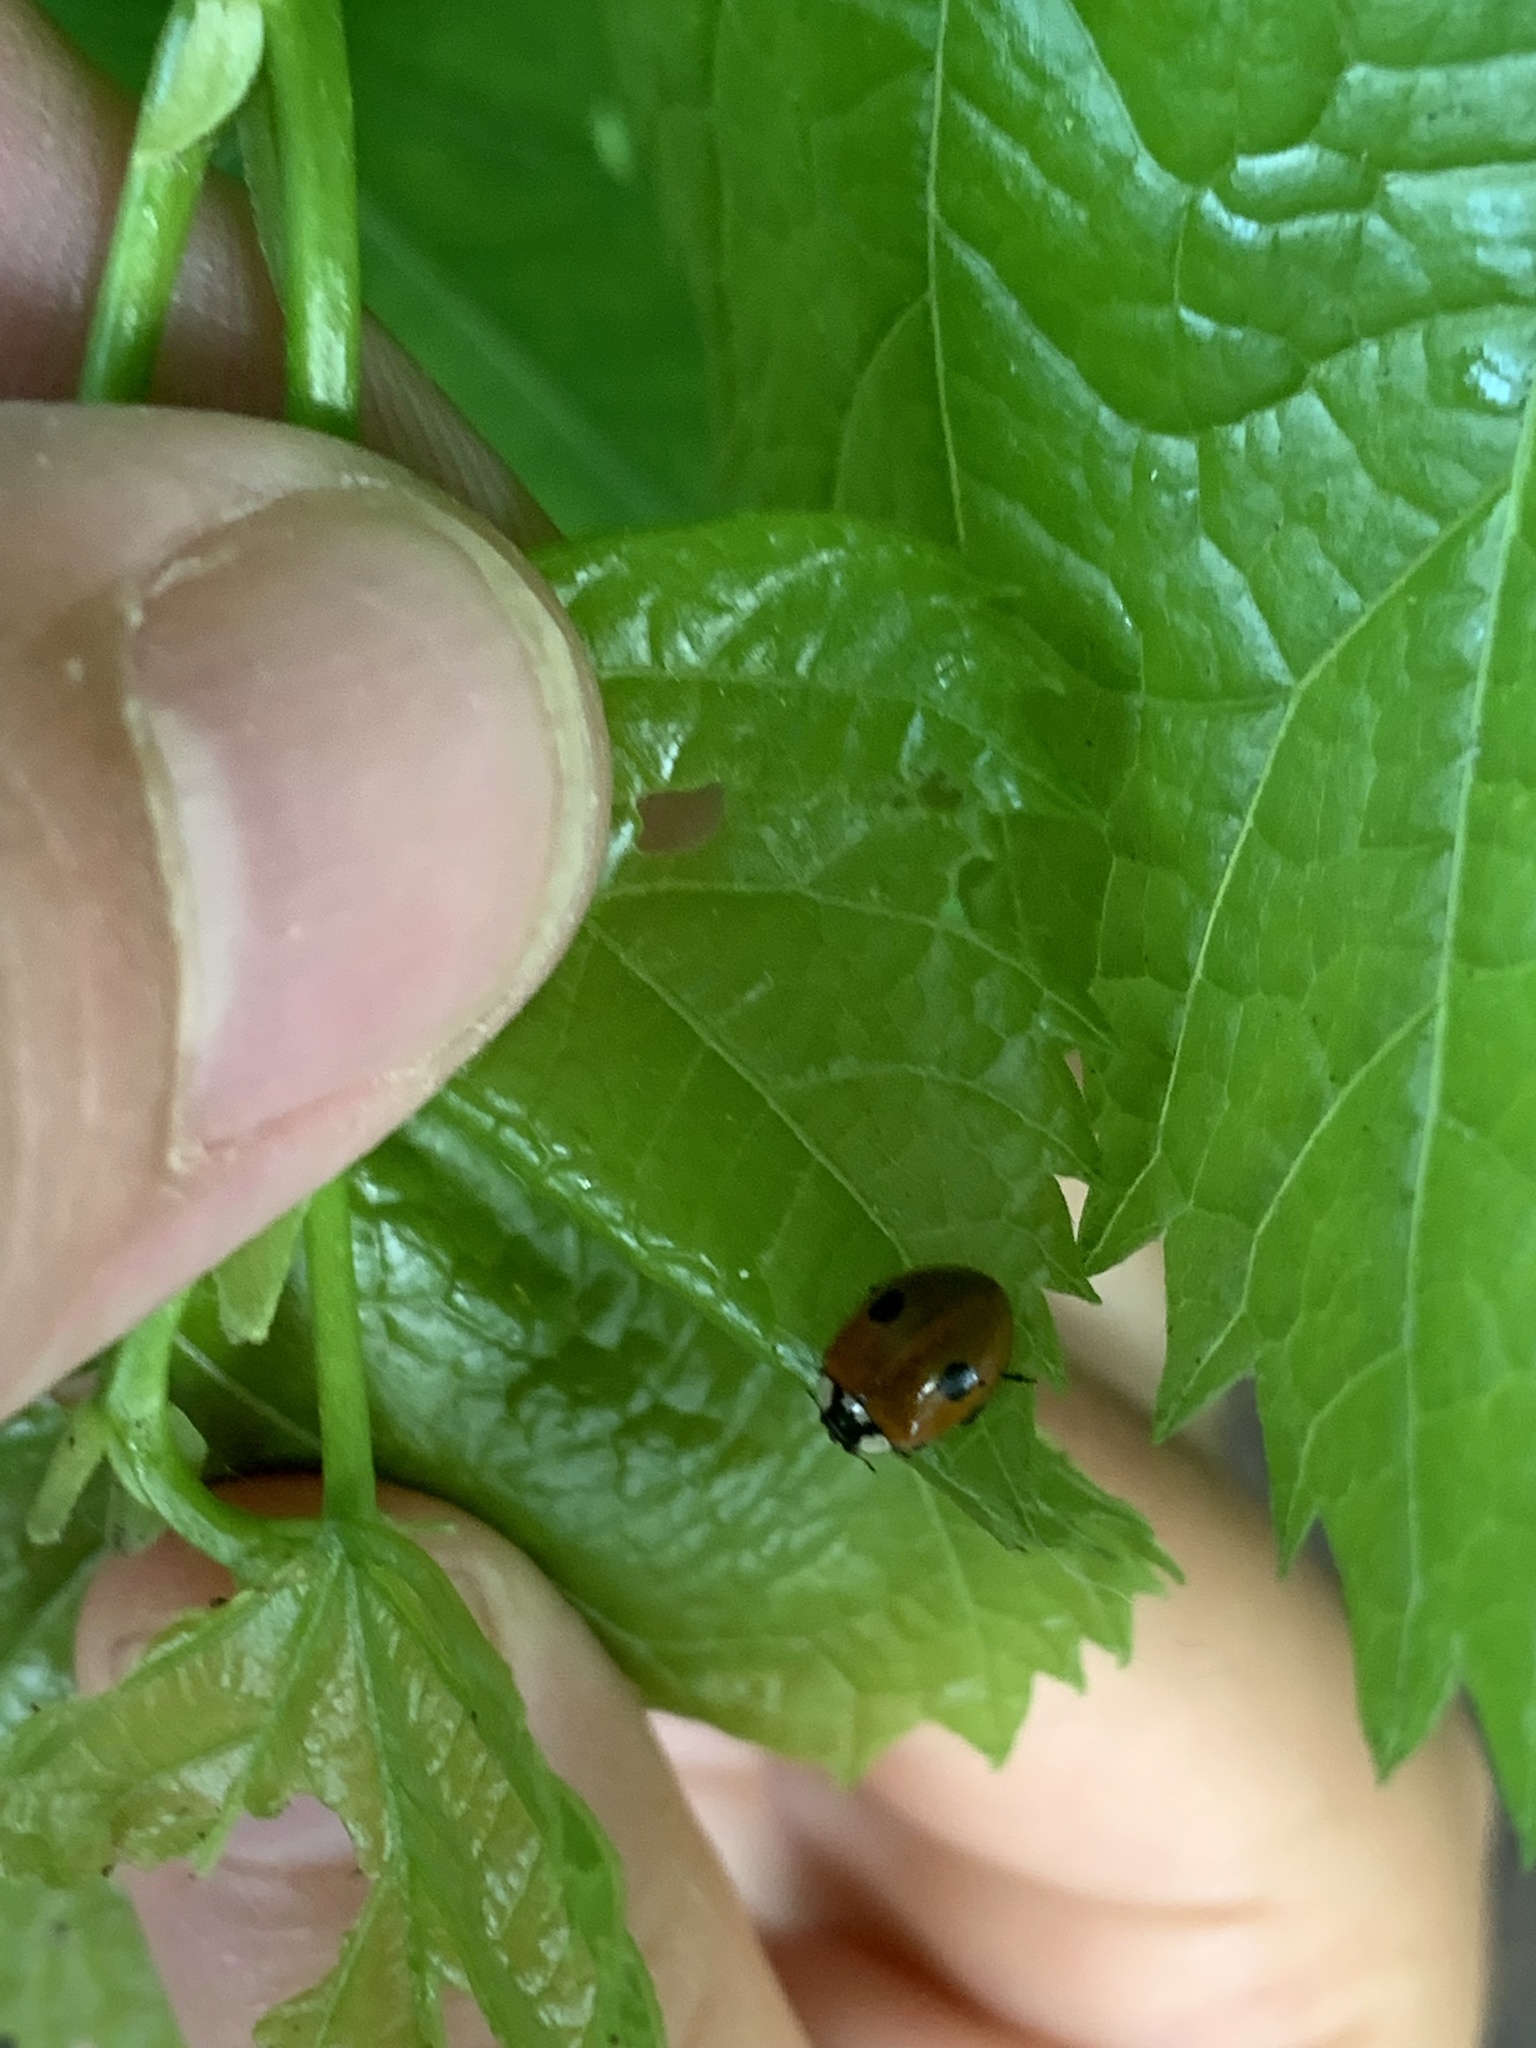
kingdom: Animalia
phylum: Arthropoda
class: Insecta
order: Coleoptera
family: Coccinellidae
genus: Adalia
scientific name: Adalia bipunctata
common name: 2-spot ladybird
